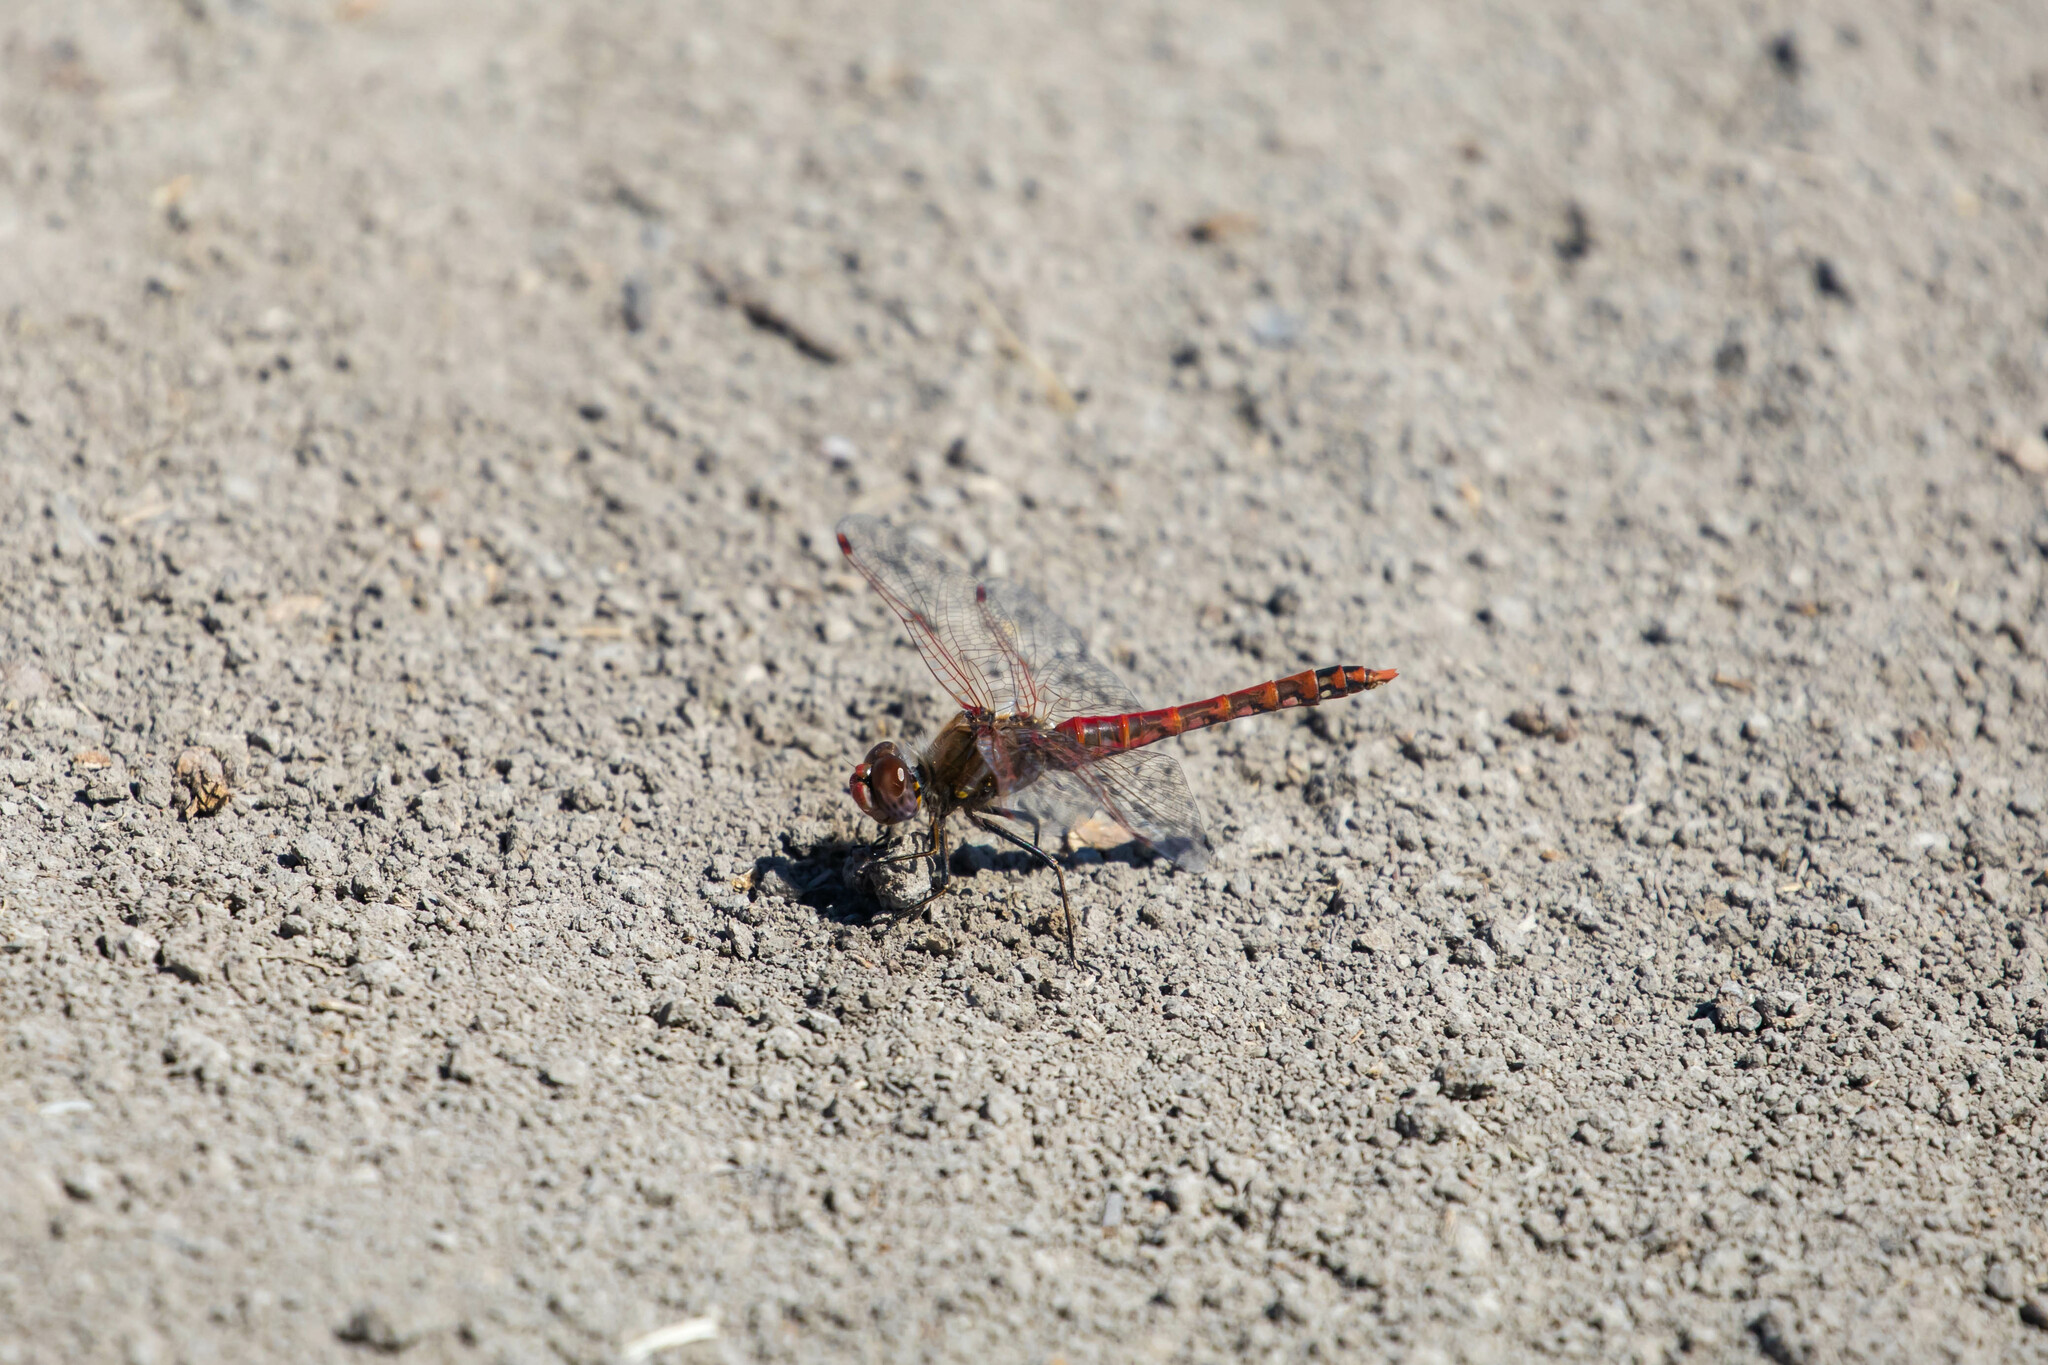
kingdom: Animalia
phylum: Arthropoda
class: Insecta
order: Odonata
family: Libellulidae
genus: Sympetrum
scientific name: Sympetrum corruptum
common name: Variegated meadowhawk
